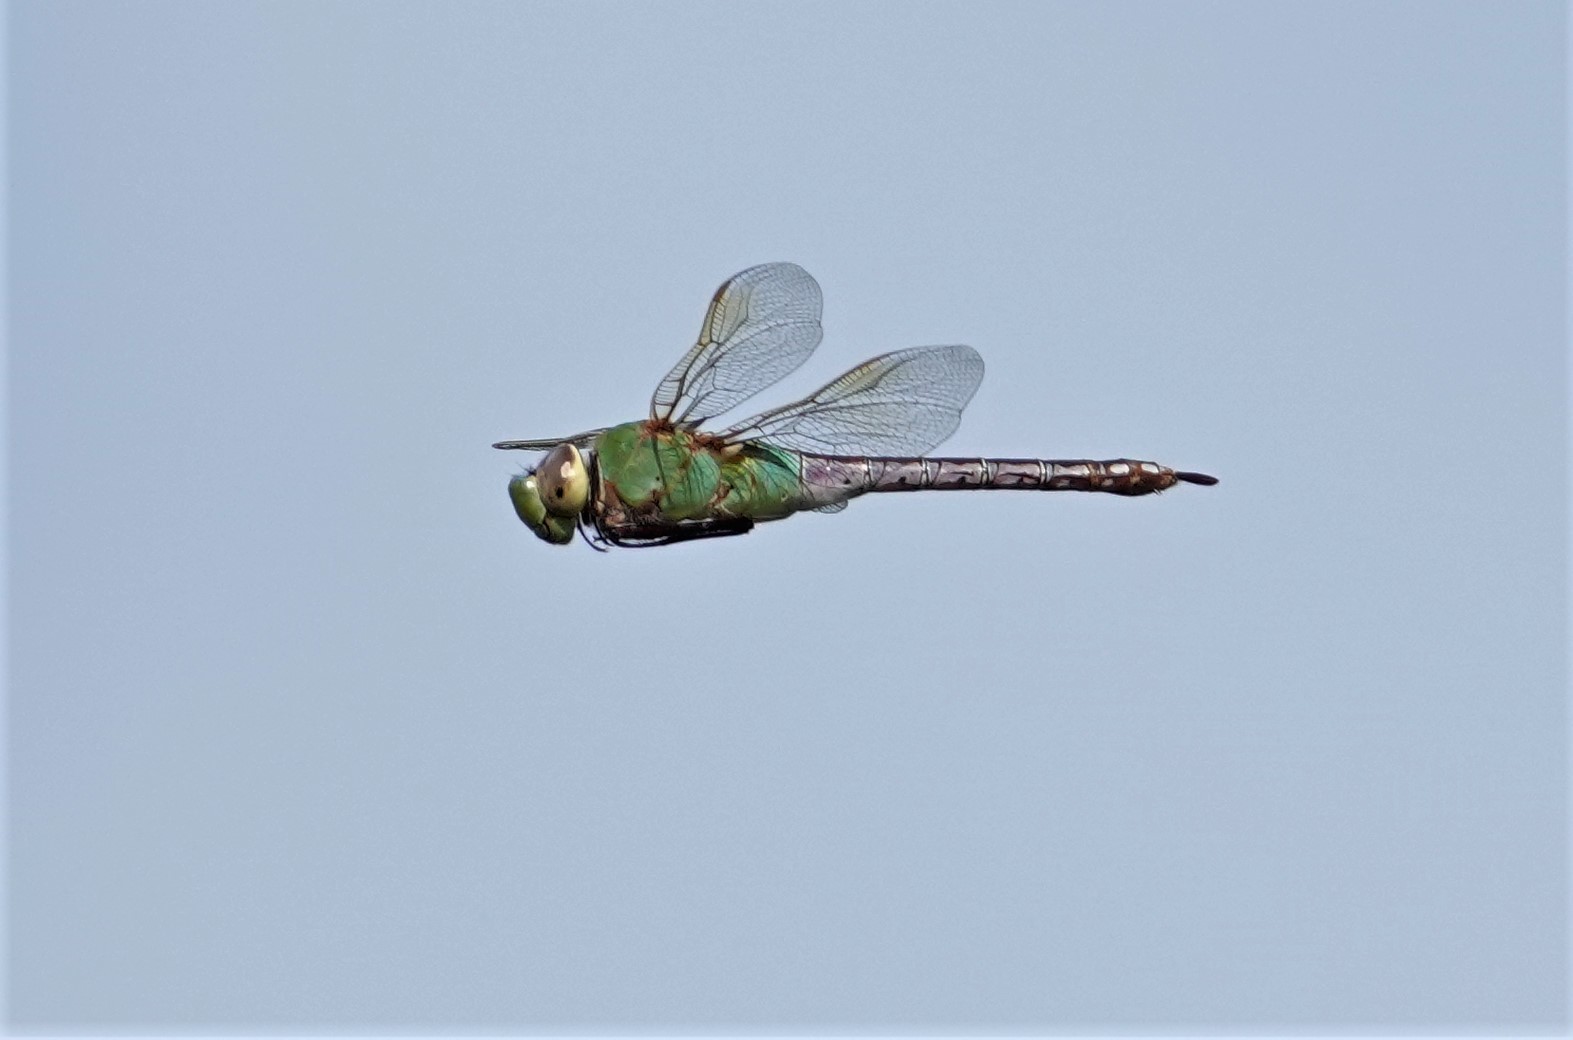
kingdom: Animalia
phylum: Arthropoda
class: Insecta
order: Odonata
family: Aeshnidae
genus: Anax
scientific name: Anax junius
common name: Common green darner
